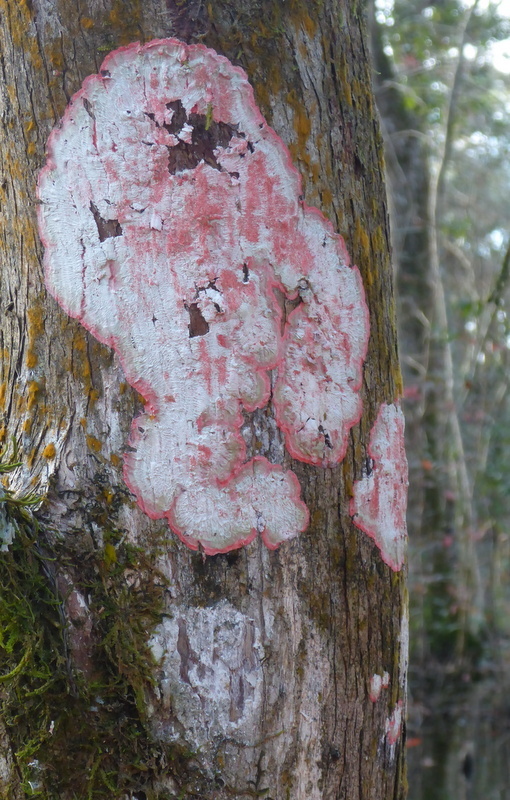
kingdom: Fungi
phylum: Ascomycota
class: Arthoniomycetes
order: Arthoniales
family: Arthoniaceae
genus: Herpothallon
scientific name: Herpothallon rubrocinctum
